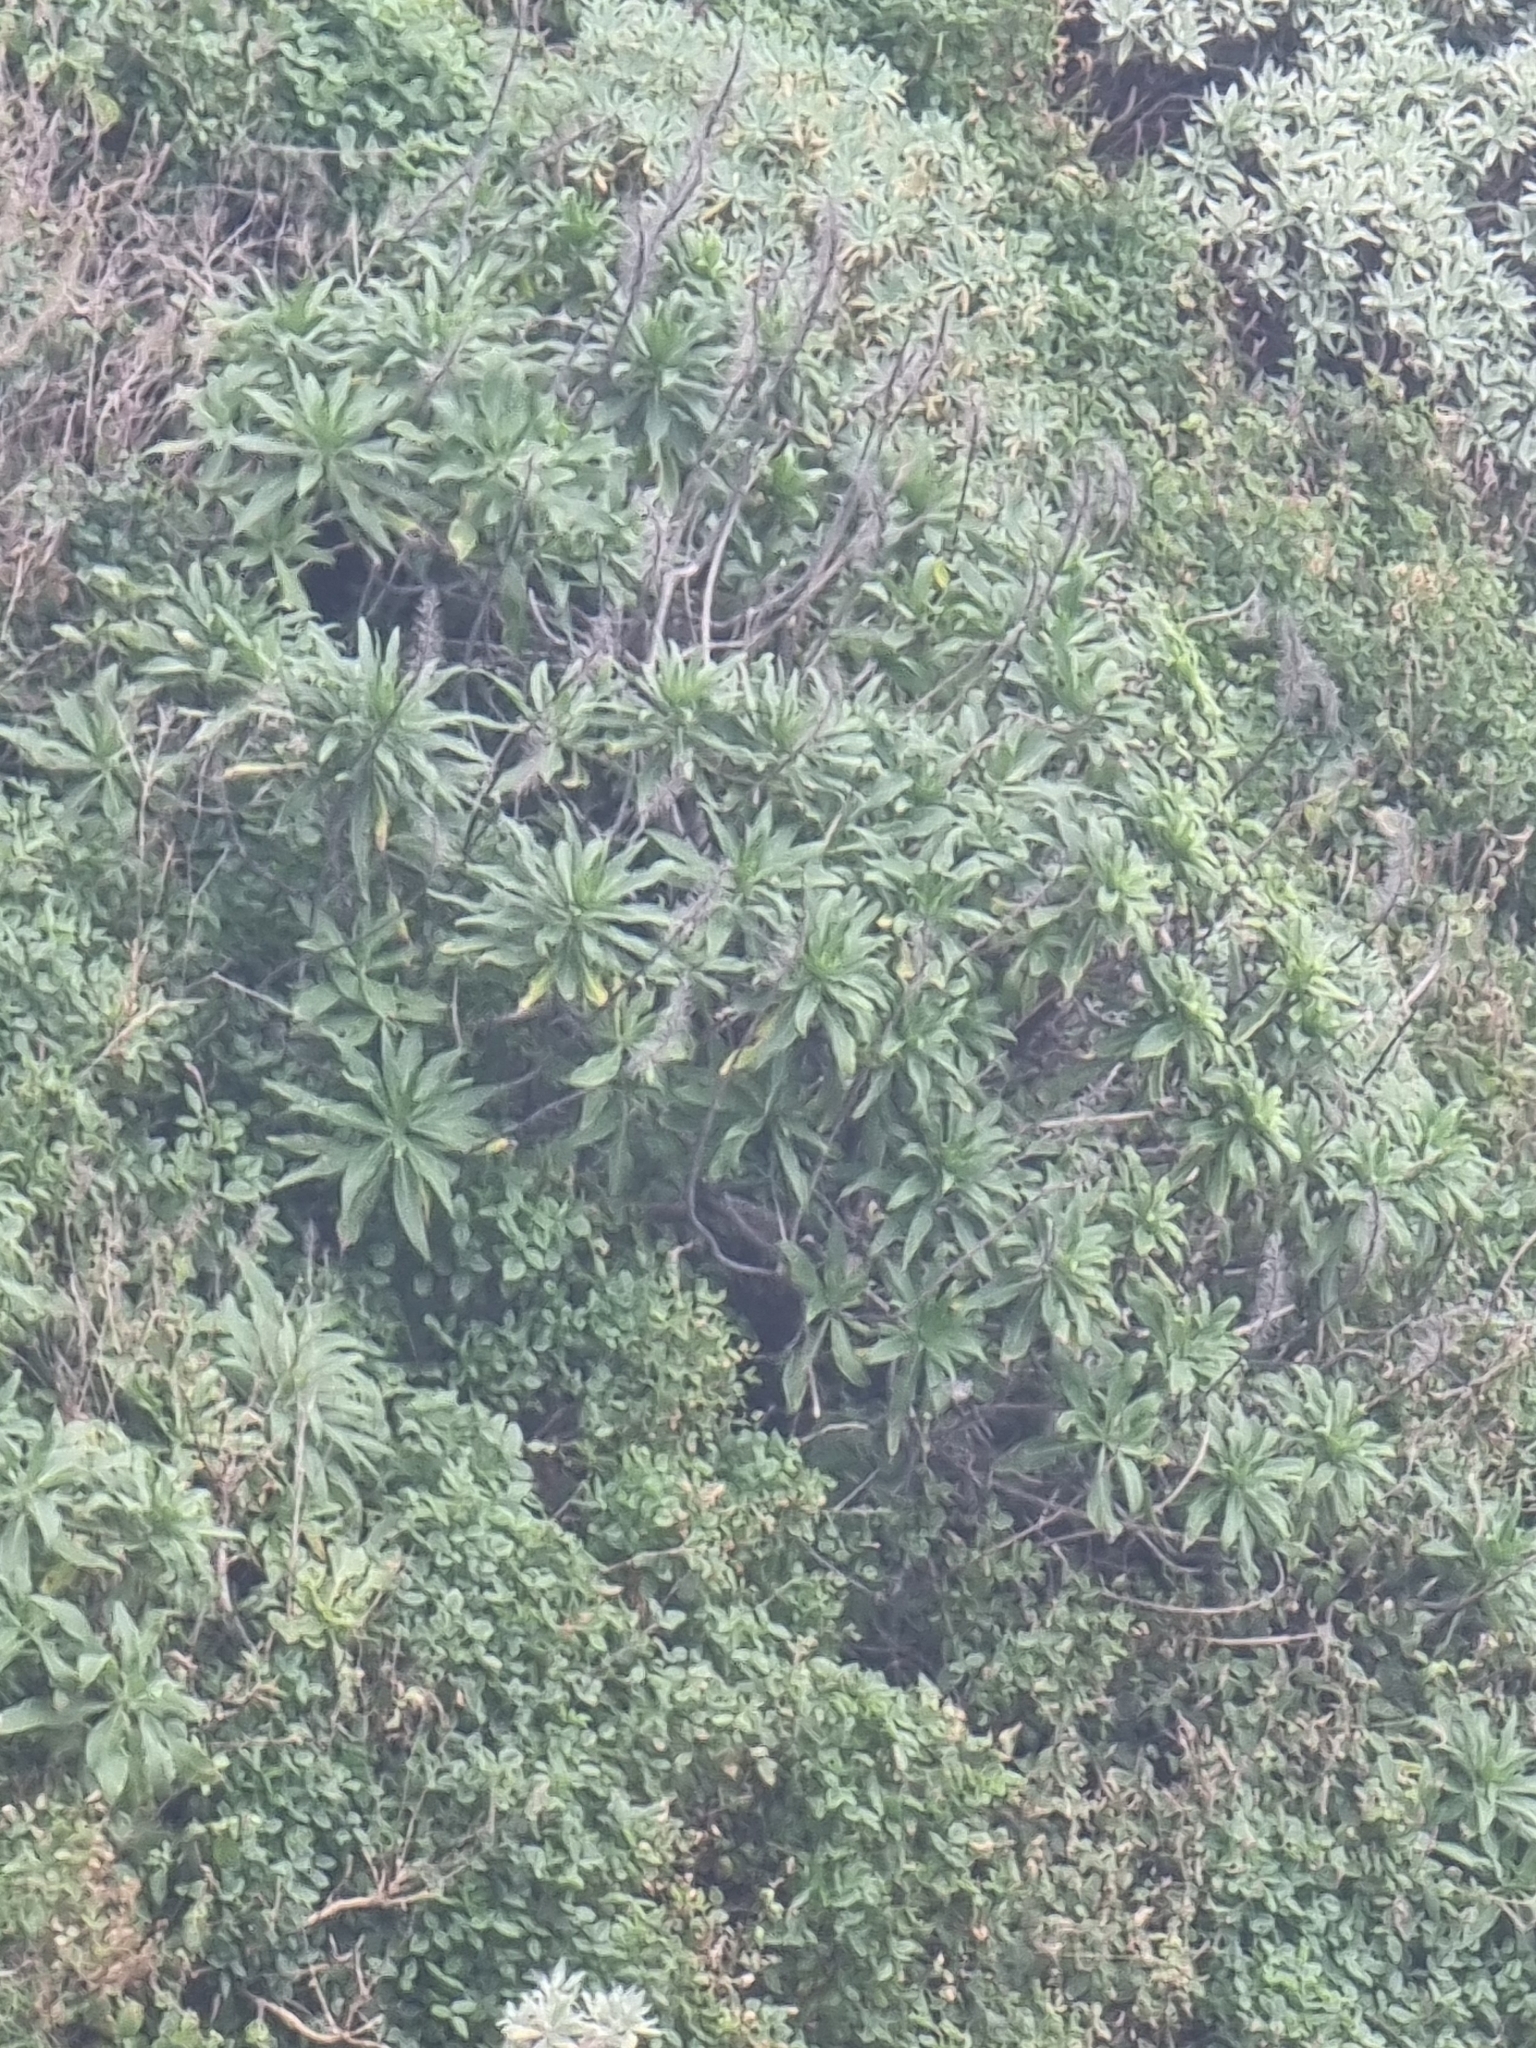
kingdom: Plantae
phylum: Tracheophyta
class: Magnoliopsida
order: Boraginales
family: Boraginaceae
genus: Echium
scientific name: Echium nervosum
